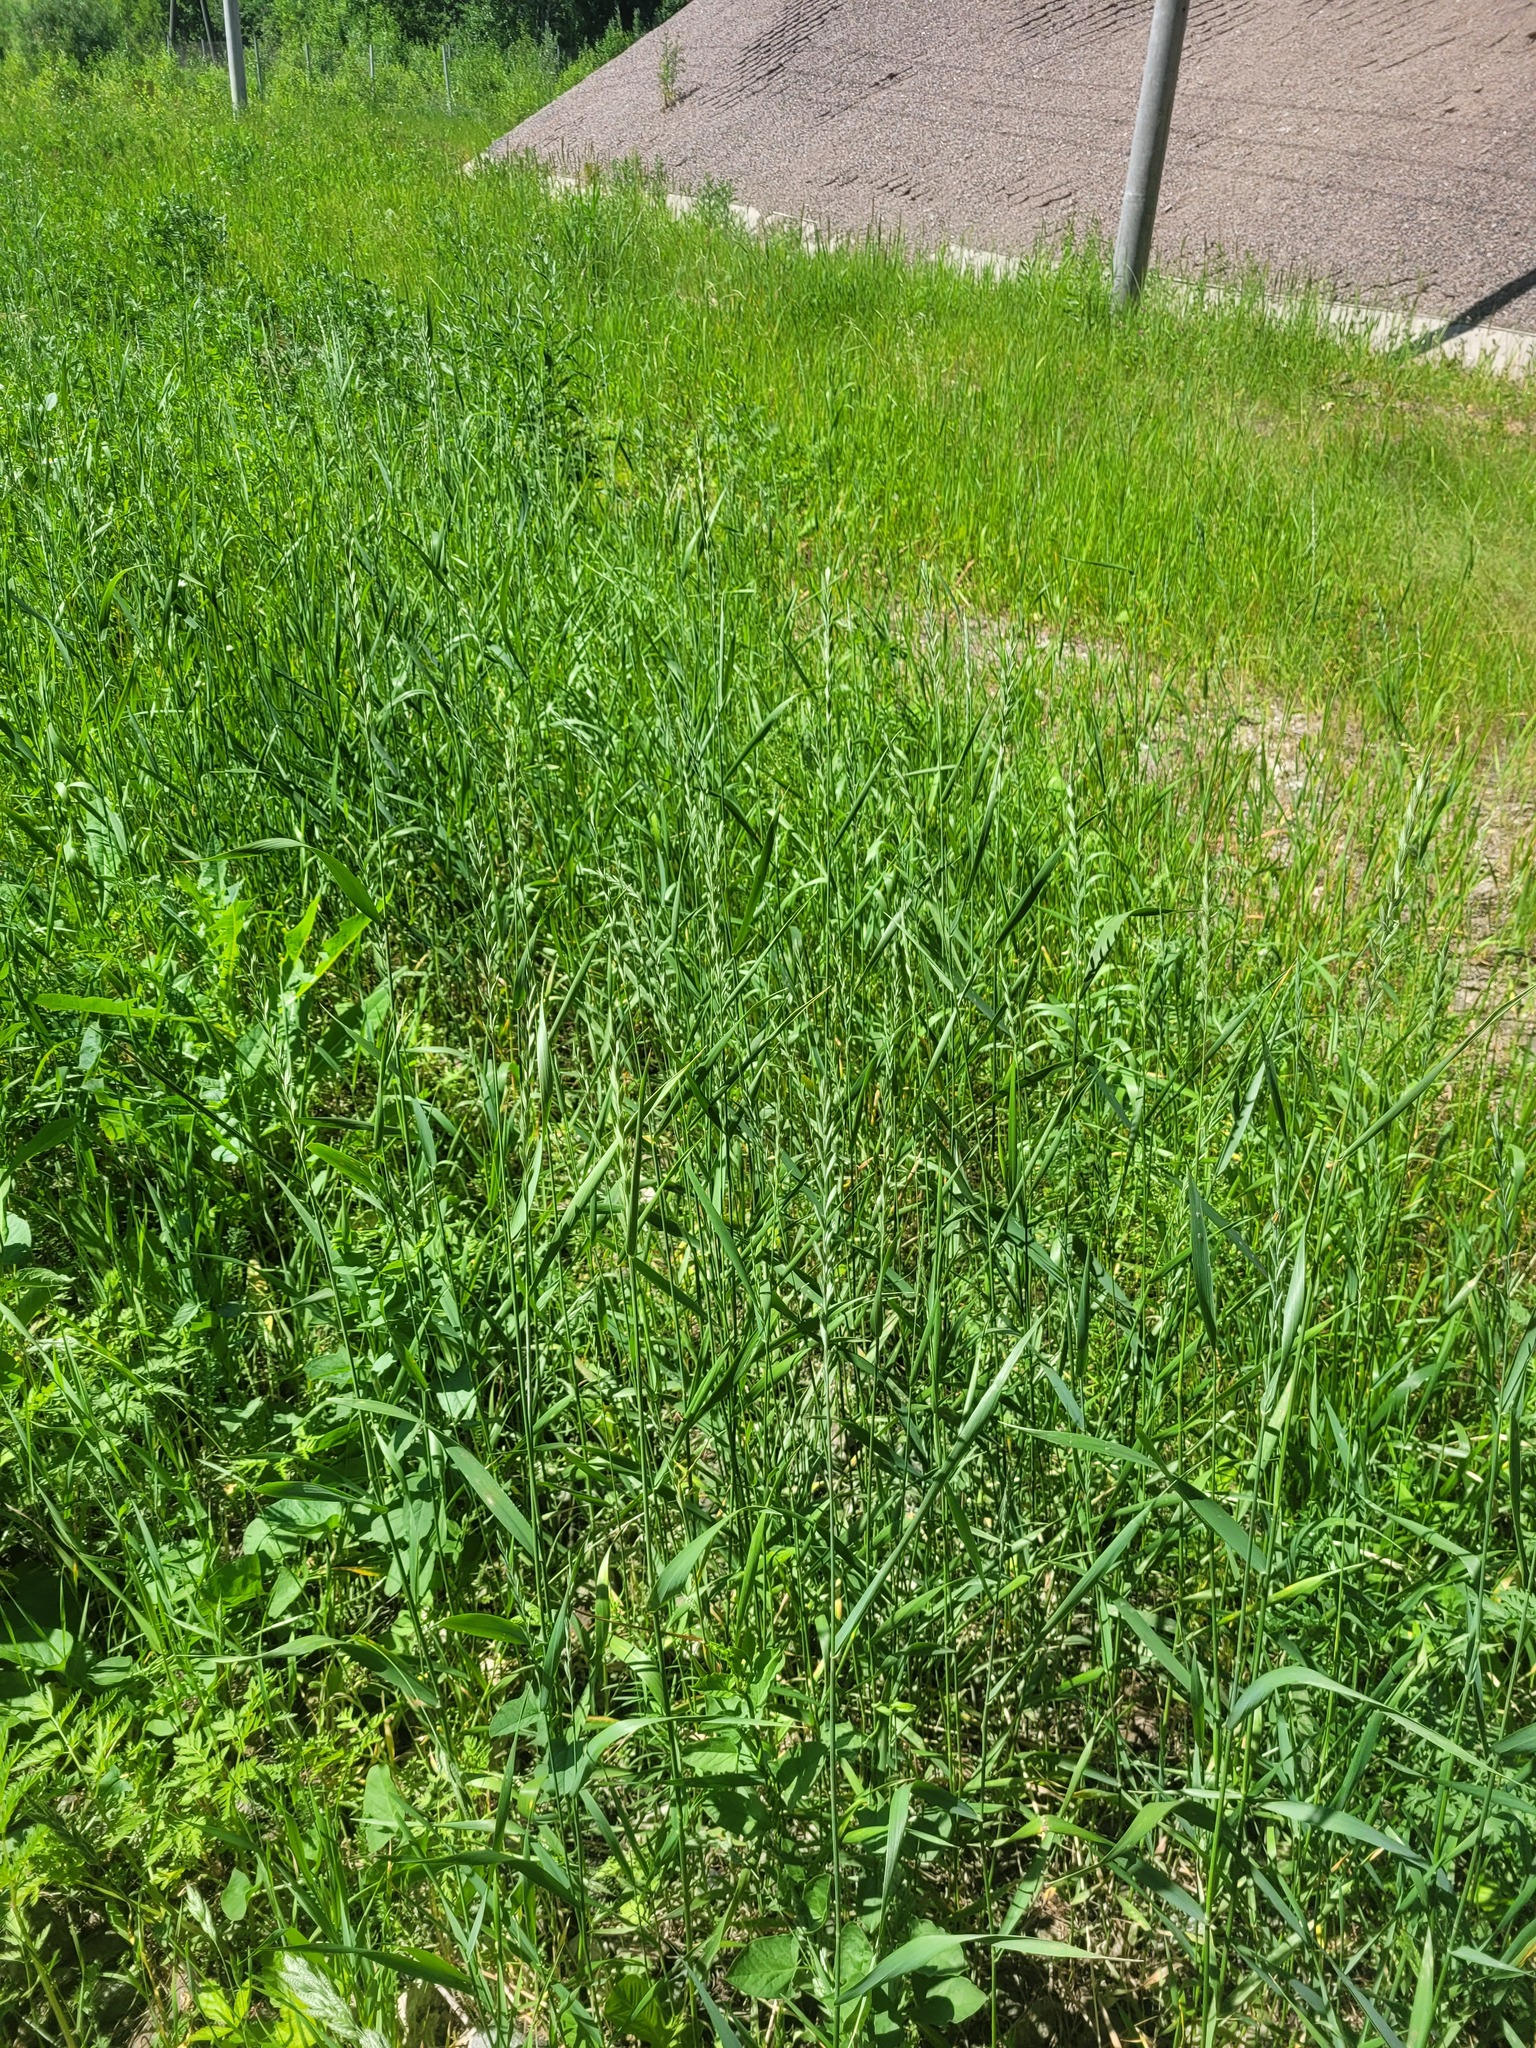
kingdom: Plantae
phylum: Tracheophyta
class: Liliopsida
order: Poales
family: Poaceae
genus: Elymus
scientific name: Elymus repens
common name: Quackgrass
